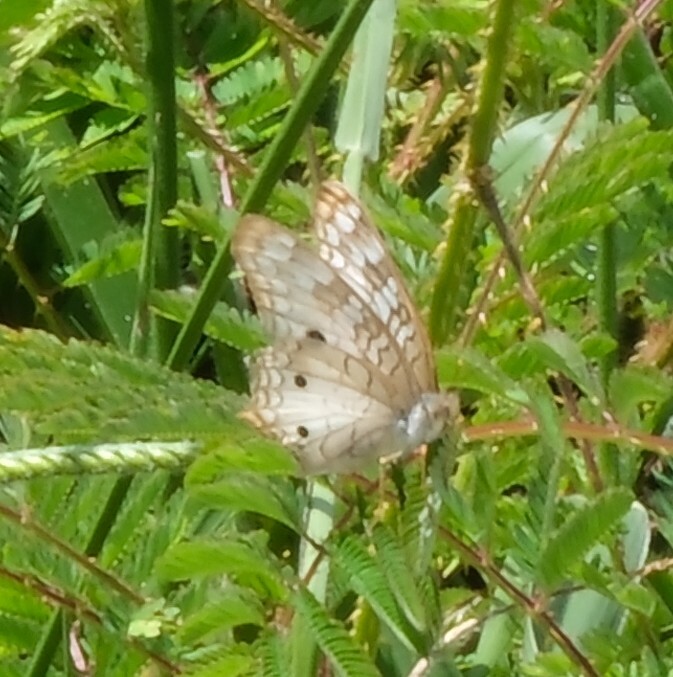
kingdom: Animalia
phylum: Arthropoda
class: Insecta
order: Lepidoptera
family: Nymphalidae
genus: Anartia
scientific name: Anartia jatrophae
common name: White peacock
